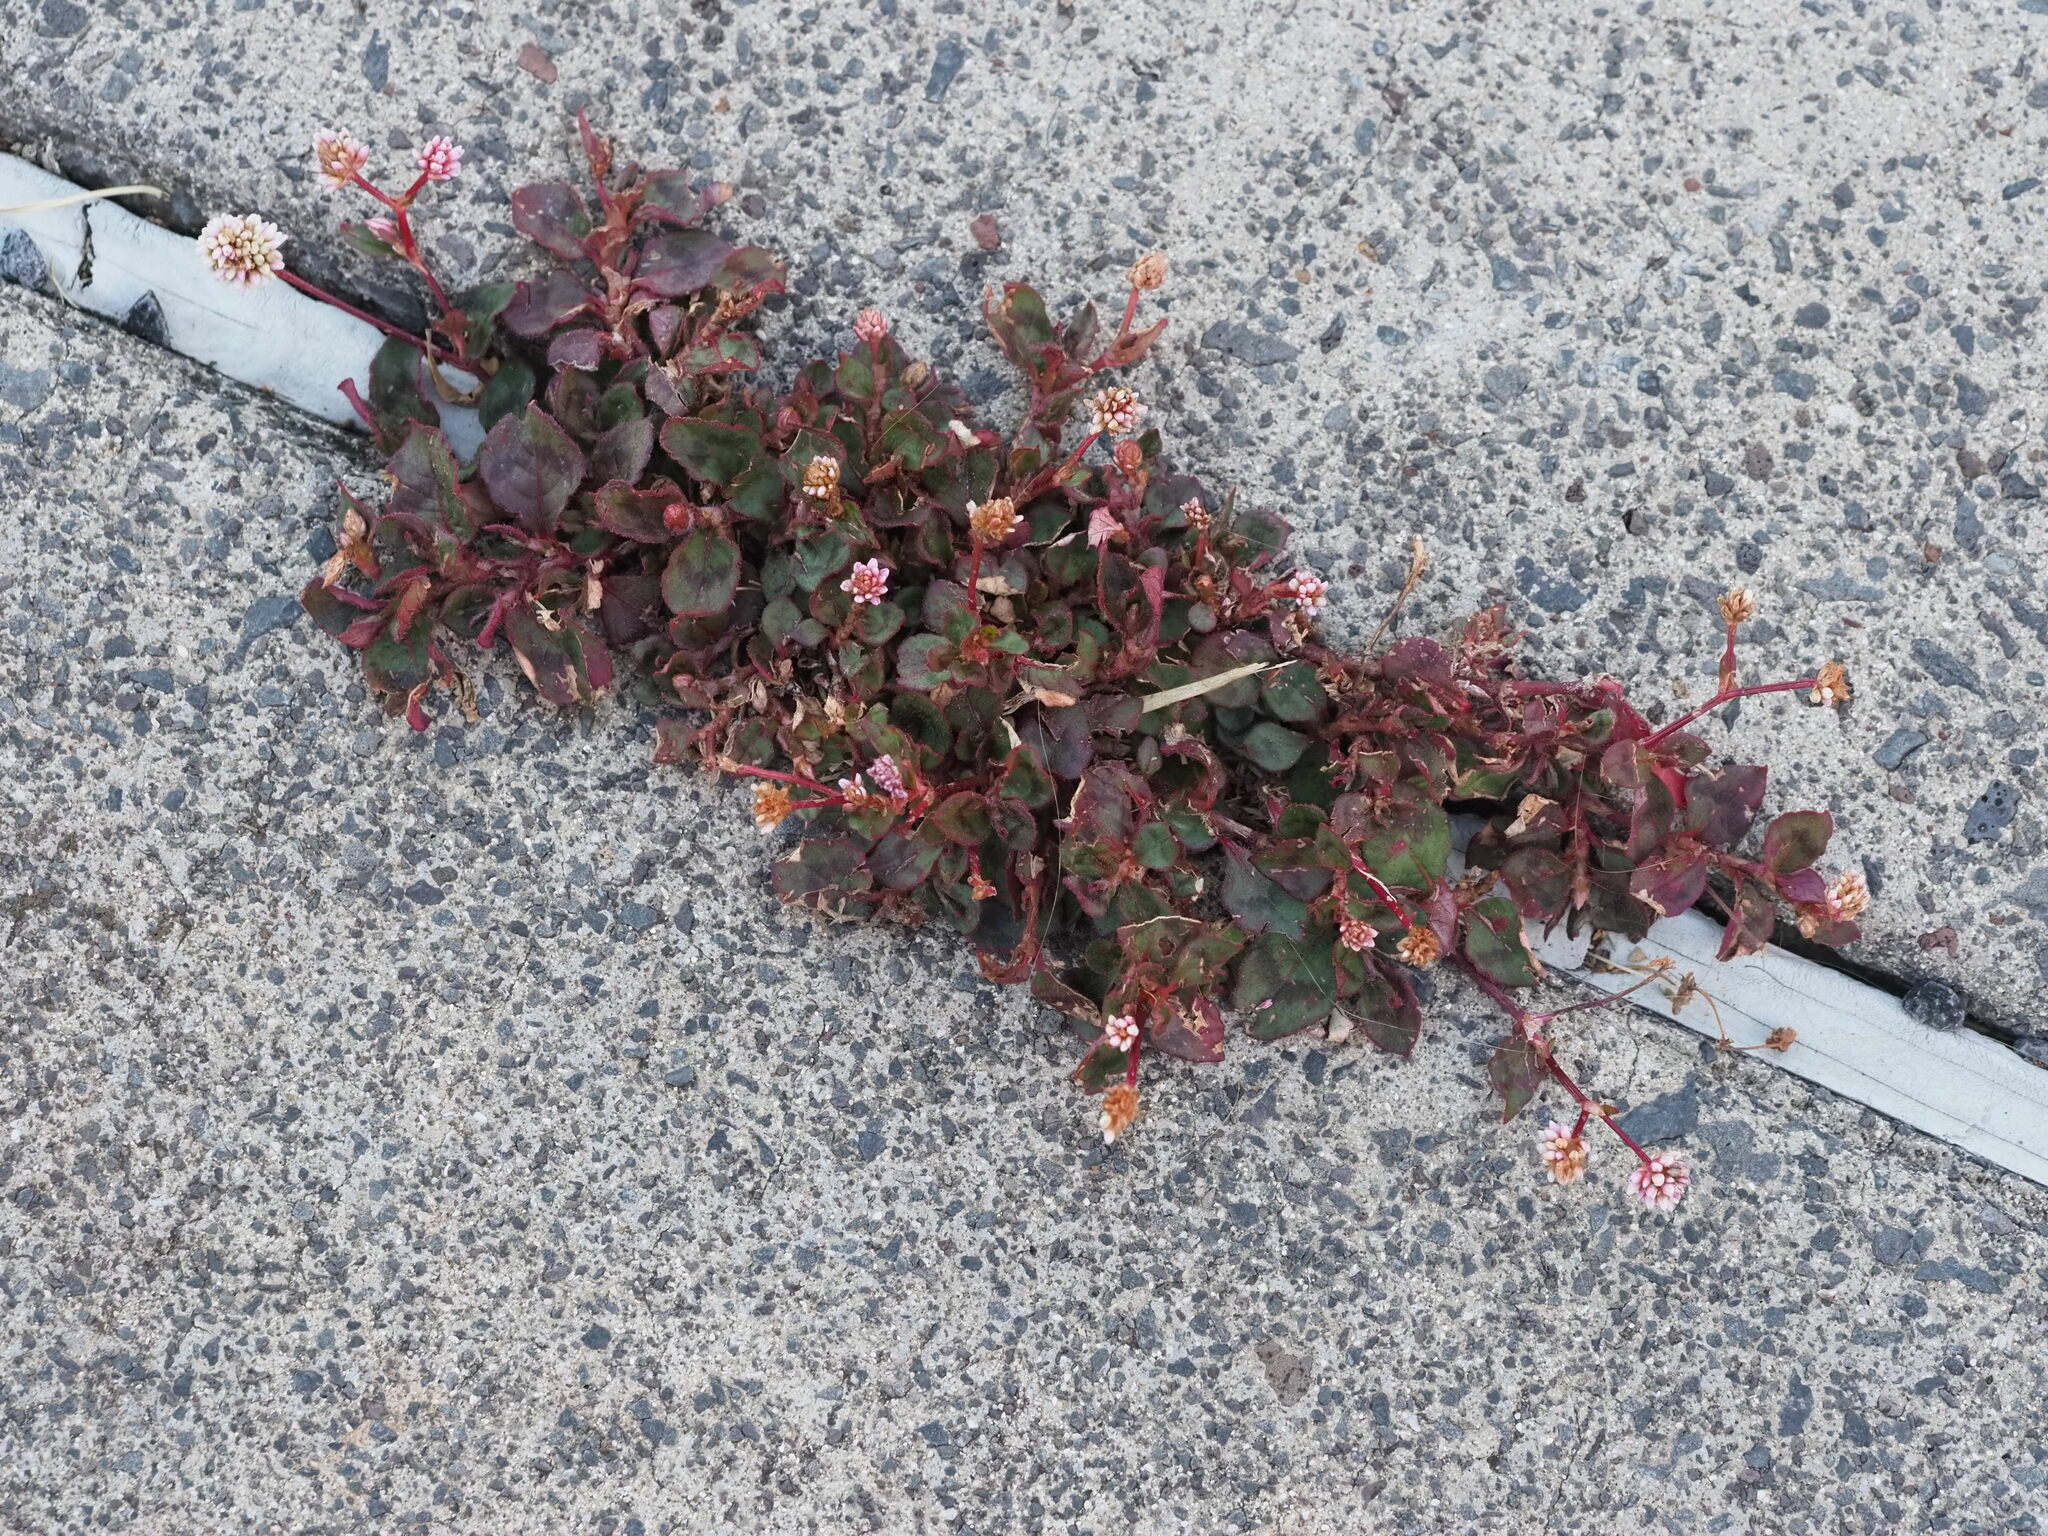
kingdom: Plantae
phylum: Tracheophyta
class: Magnoliopsida
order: Caryophyllales
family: Polygonaceae
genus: Persicaria
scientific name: Persicaria capitata
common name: Pinkhead smartweed
